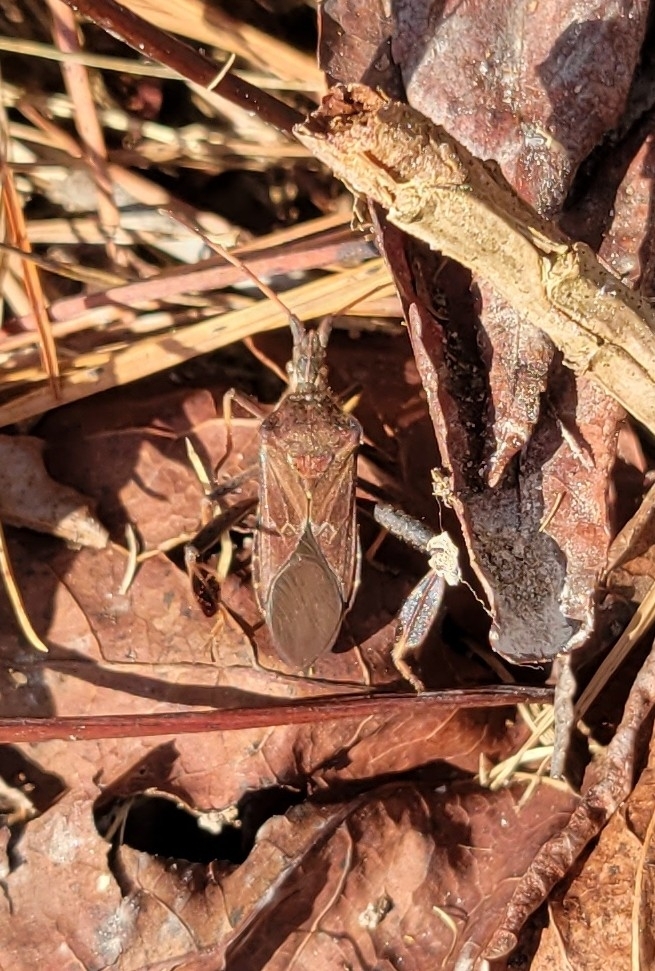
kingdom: Animalia
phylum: Arthropoda
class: Insecta
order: Hemiptera
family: Coreidae
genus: Leptoglossus
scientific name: Leptoglossus corculus
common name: Southern pine seed bug
